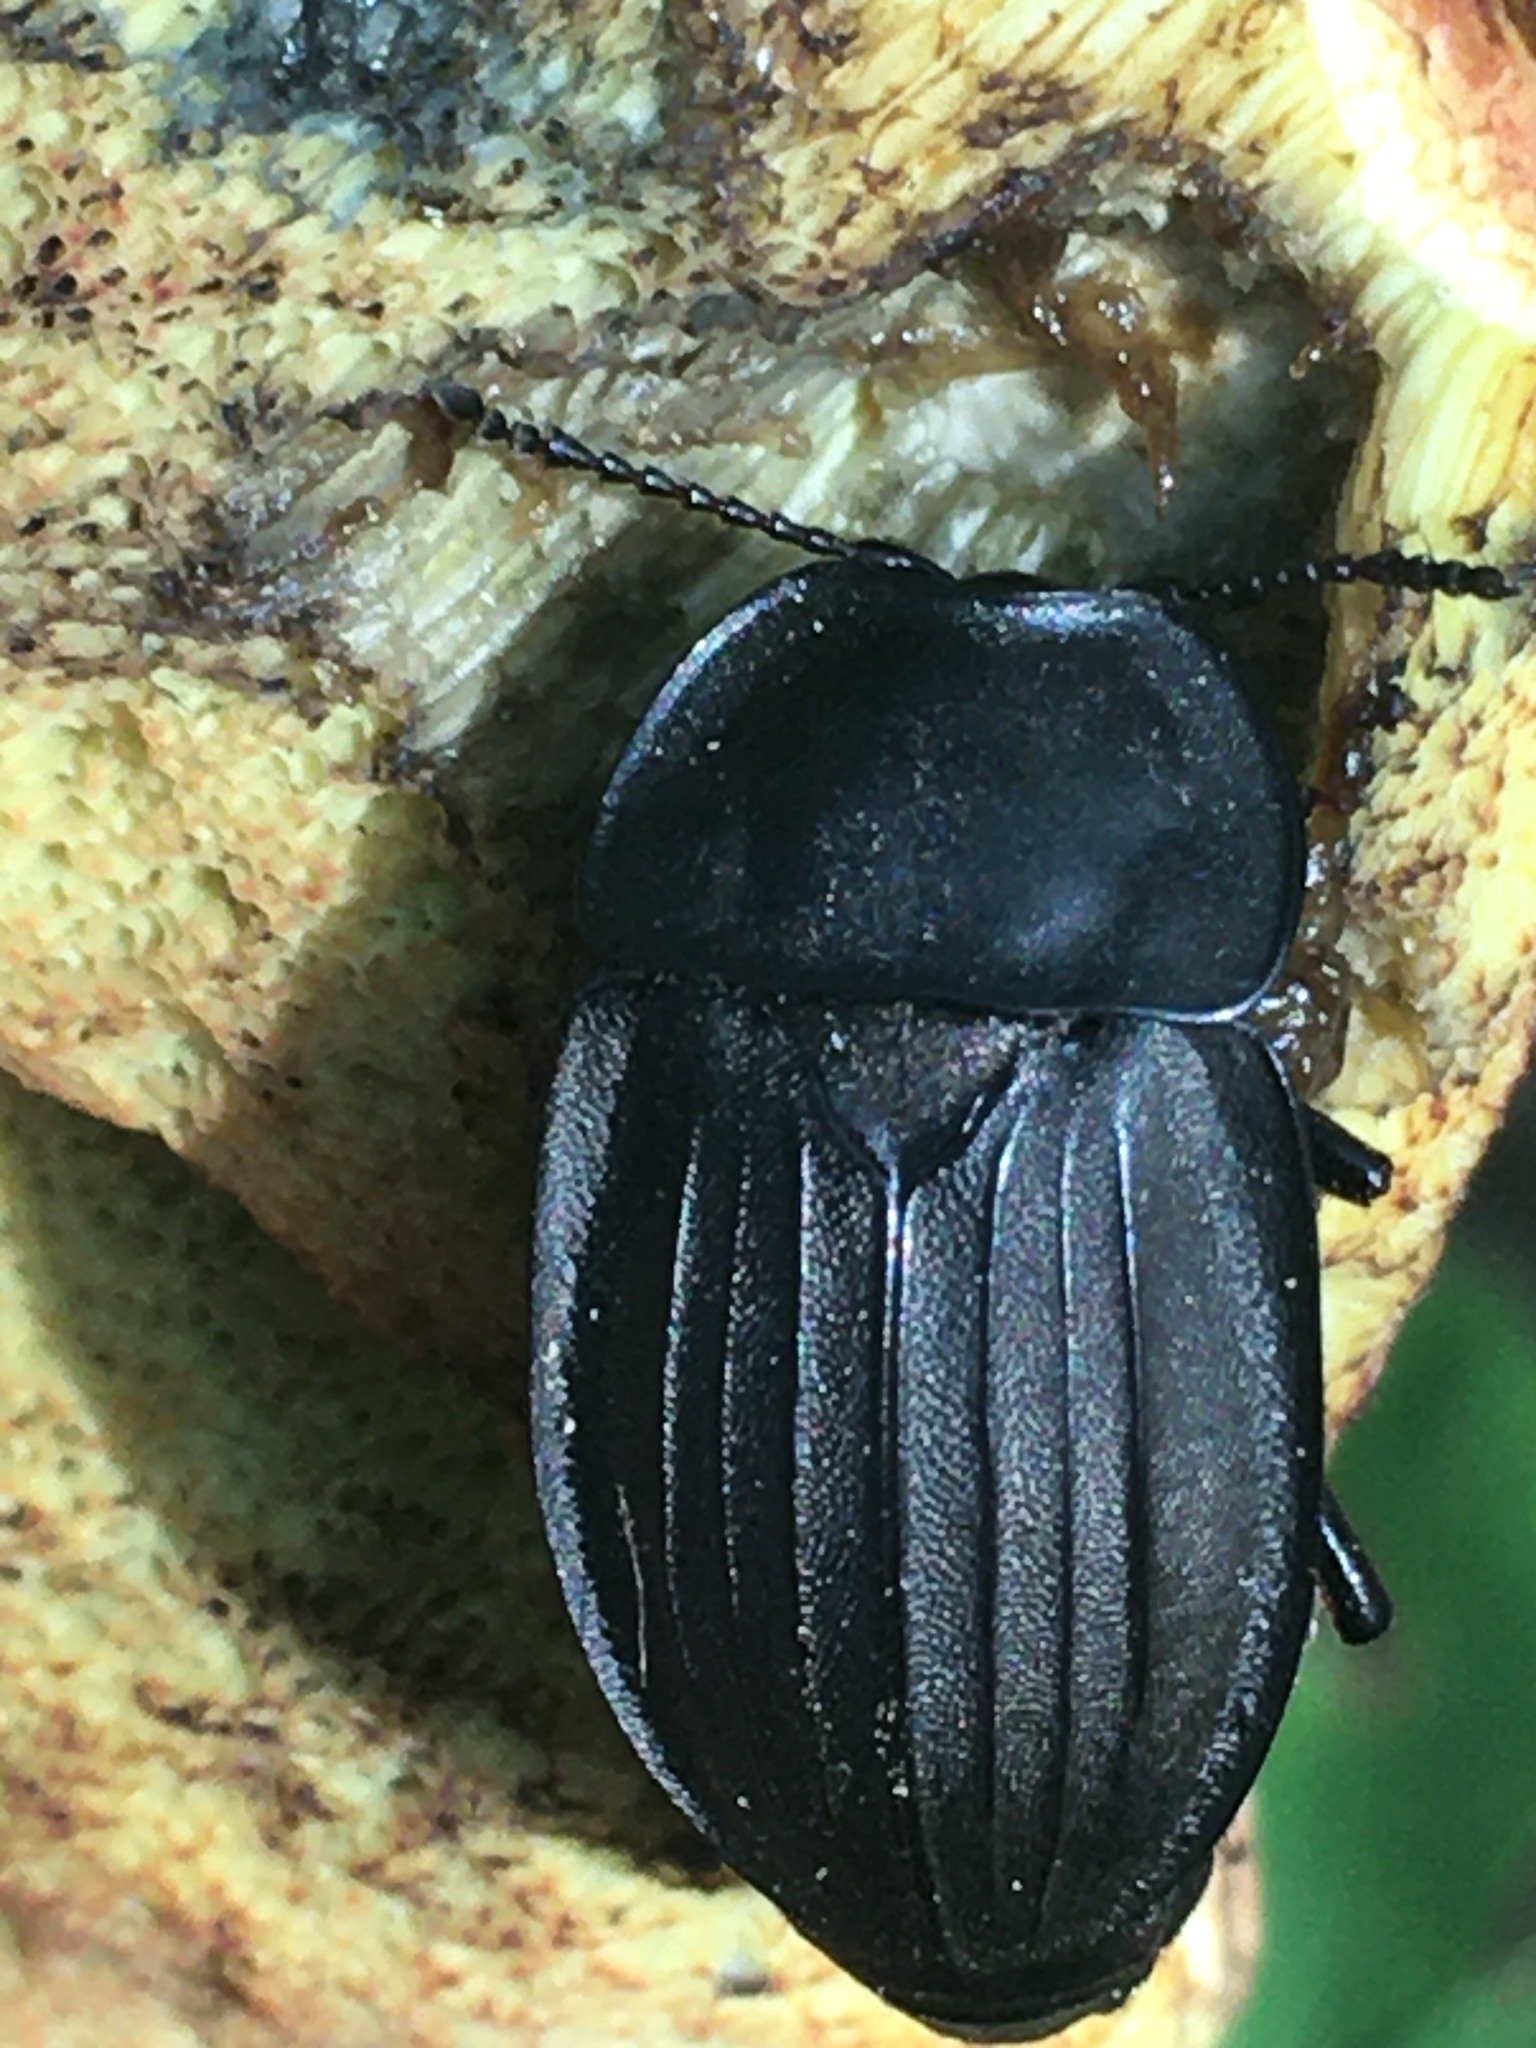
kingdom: Animalia
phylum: Arthropoda
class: Insecta
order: Coleoptera
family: Staphylinidae
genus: Silpha
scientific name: Silpha carinata
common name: Silphid beetle
